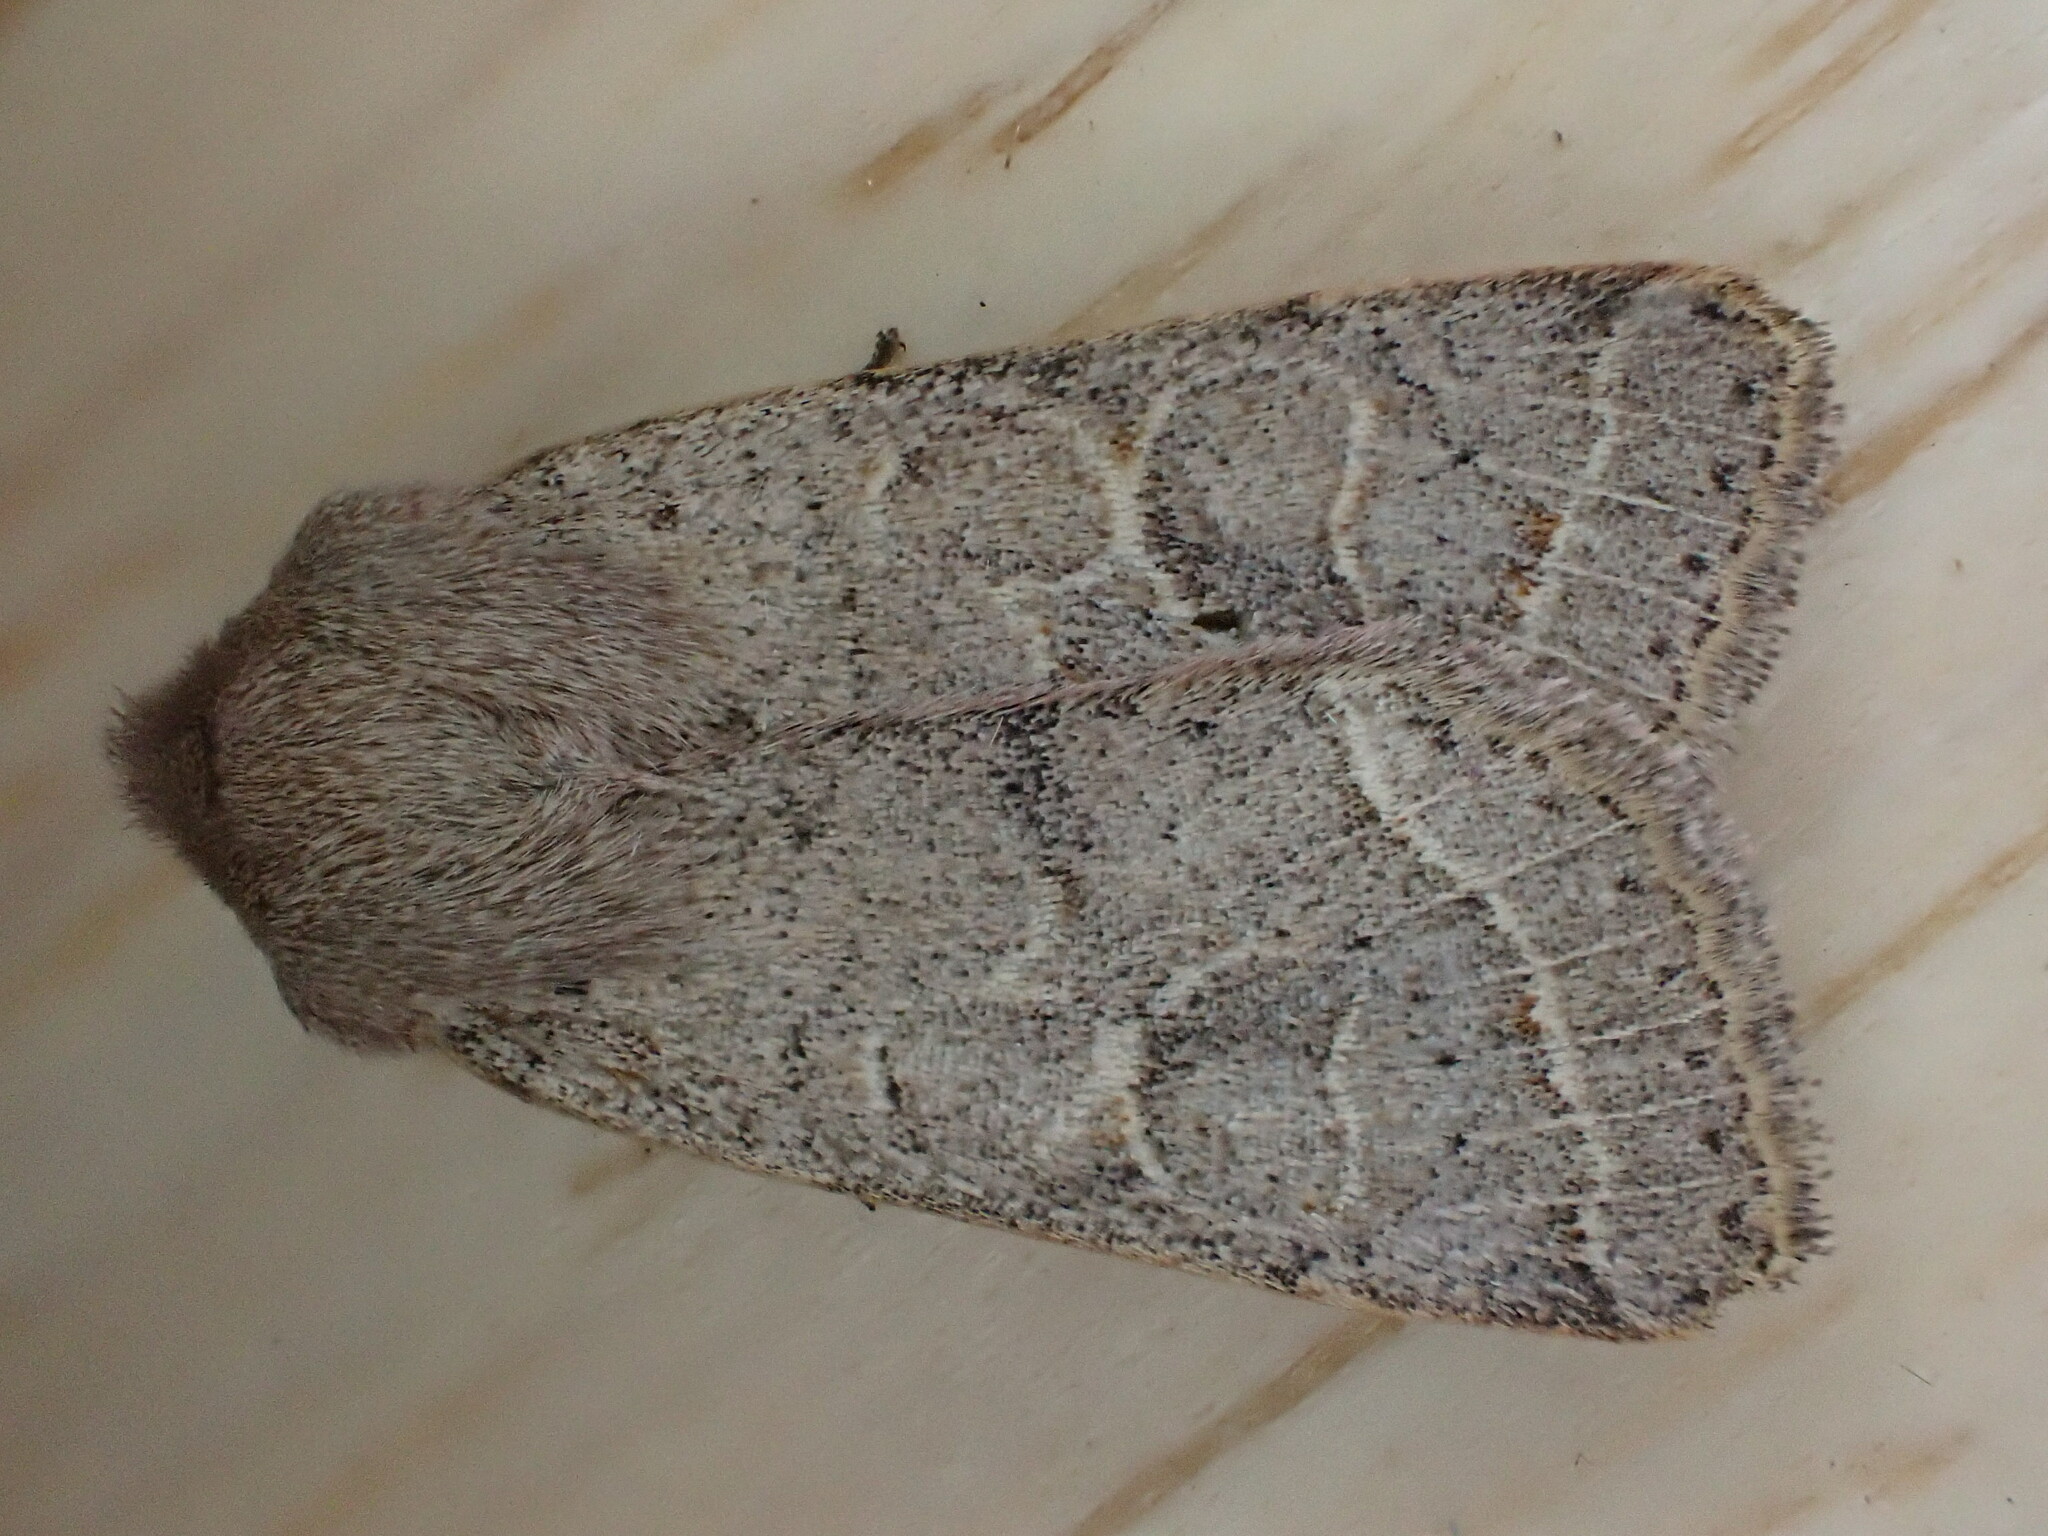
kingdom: Animalia
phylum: Arthropoda
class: Insecta
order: Lepidoptera
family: Noctuidae
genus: Orthosia
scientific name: Orthosia cerasi
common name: Common quaker
